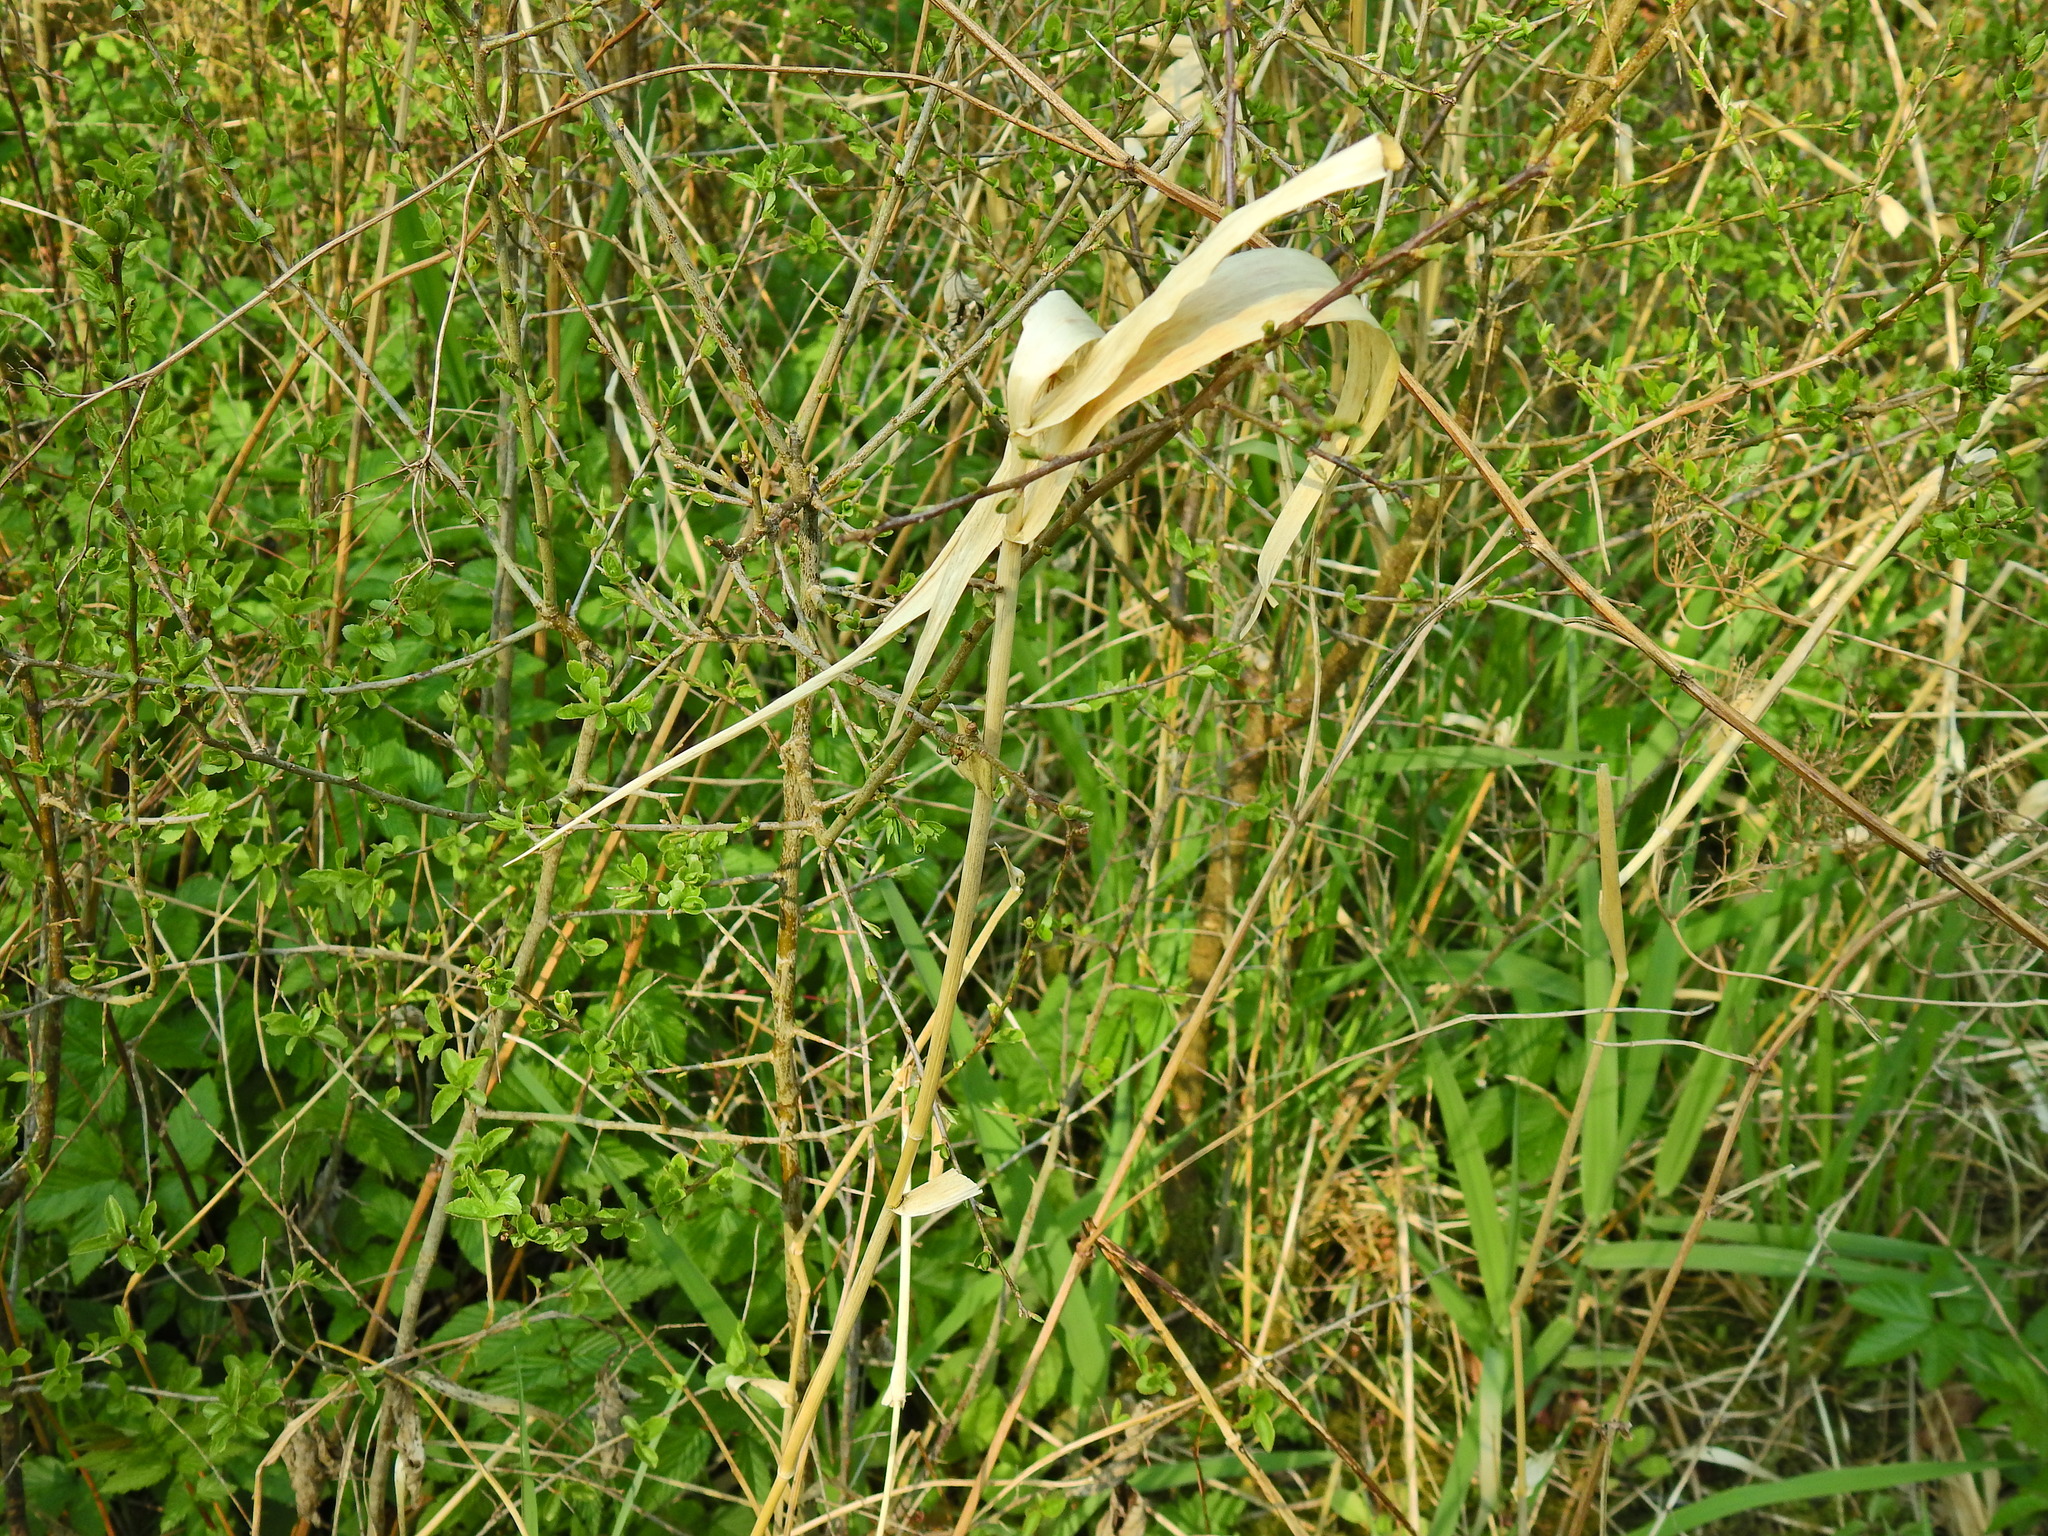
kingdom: Plantae
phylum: Tracheophyta
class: Liliopsida
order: Poales
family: Poaceae
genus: Phalaris
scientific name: Phalaris arundinacea
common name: Reed canary-grass
